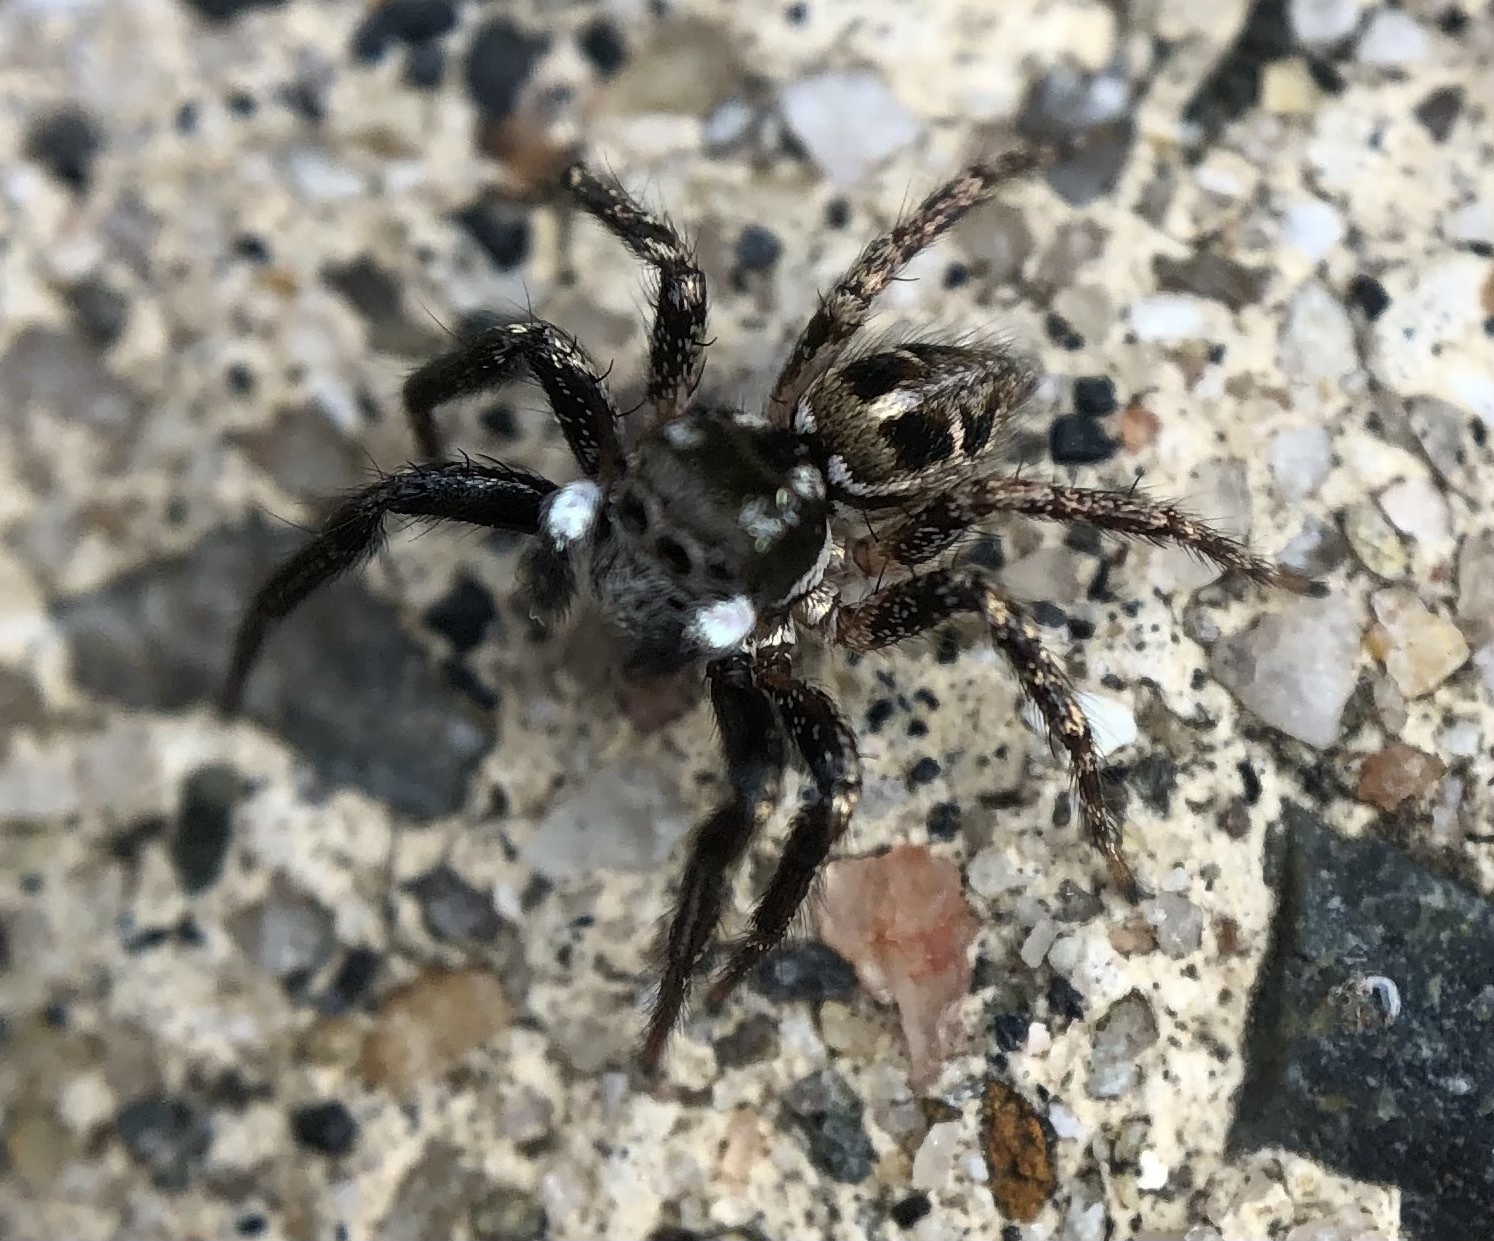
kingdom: Animalia
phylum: Arthropoda
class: Arachnida
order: Araneae
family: Salticidae
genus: Anasaitis
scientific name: Anasaitis canosa
